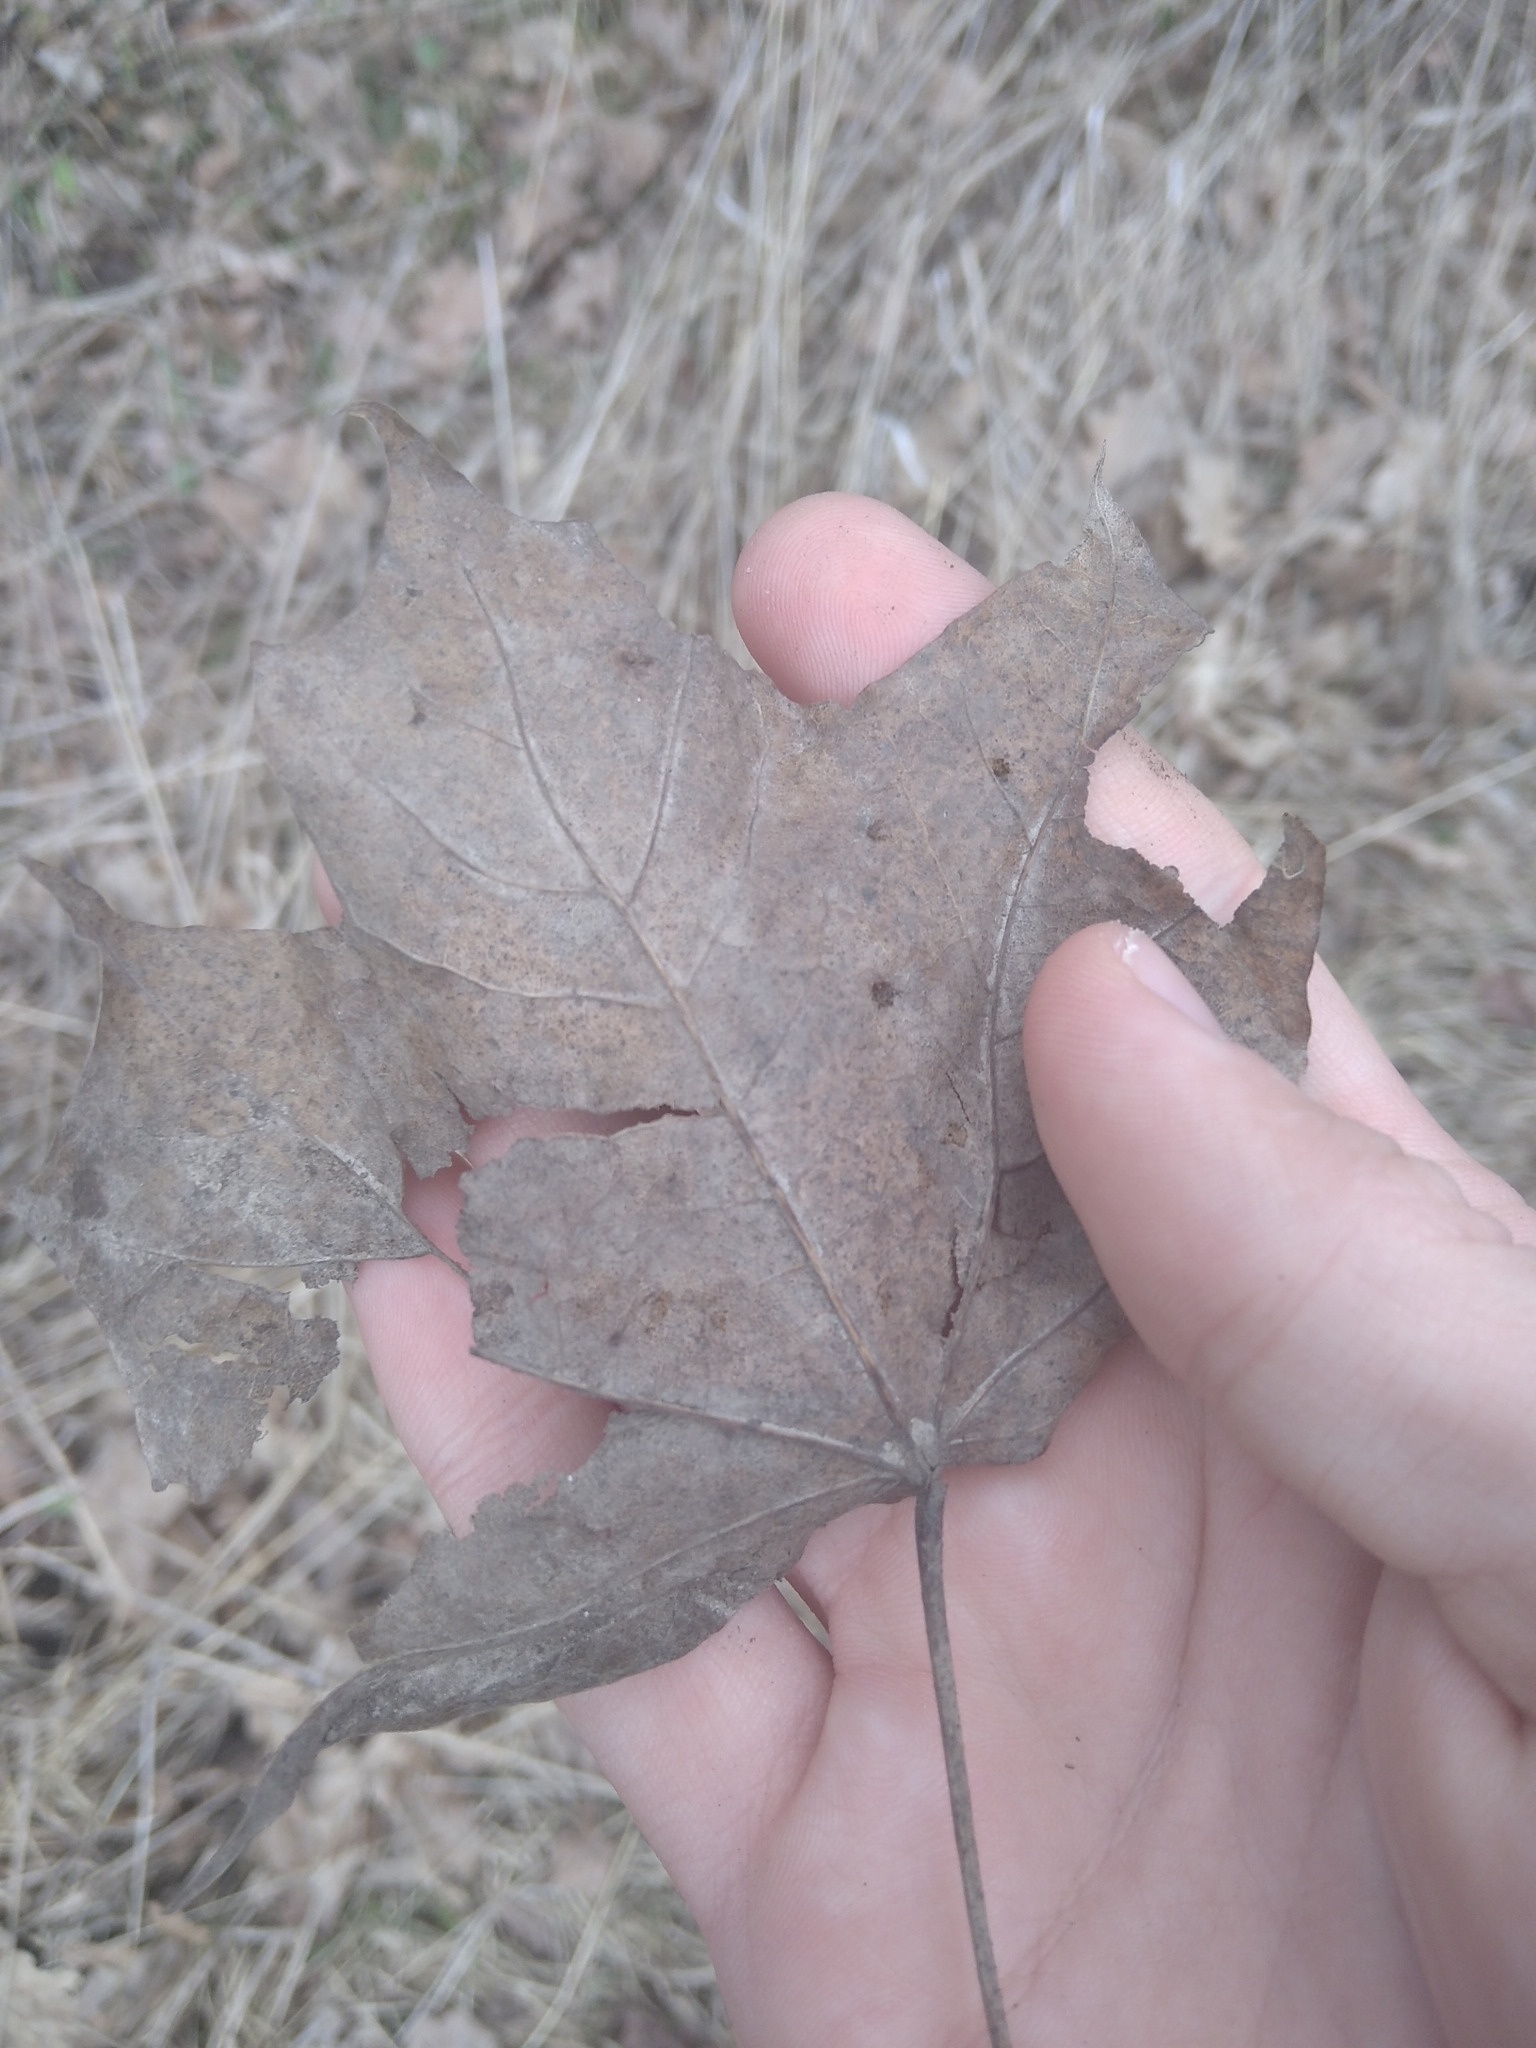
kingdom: Plantae
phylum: Tracheophyta
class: Magnoliopsida
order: Sapindales
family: Sapindaceae
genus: Acer
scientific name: Acer platanoides
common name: Norway maple
